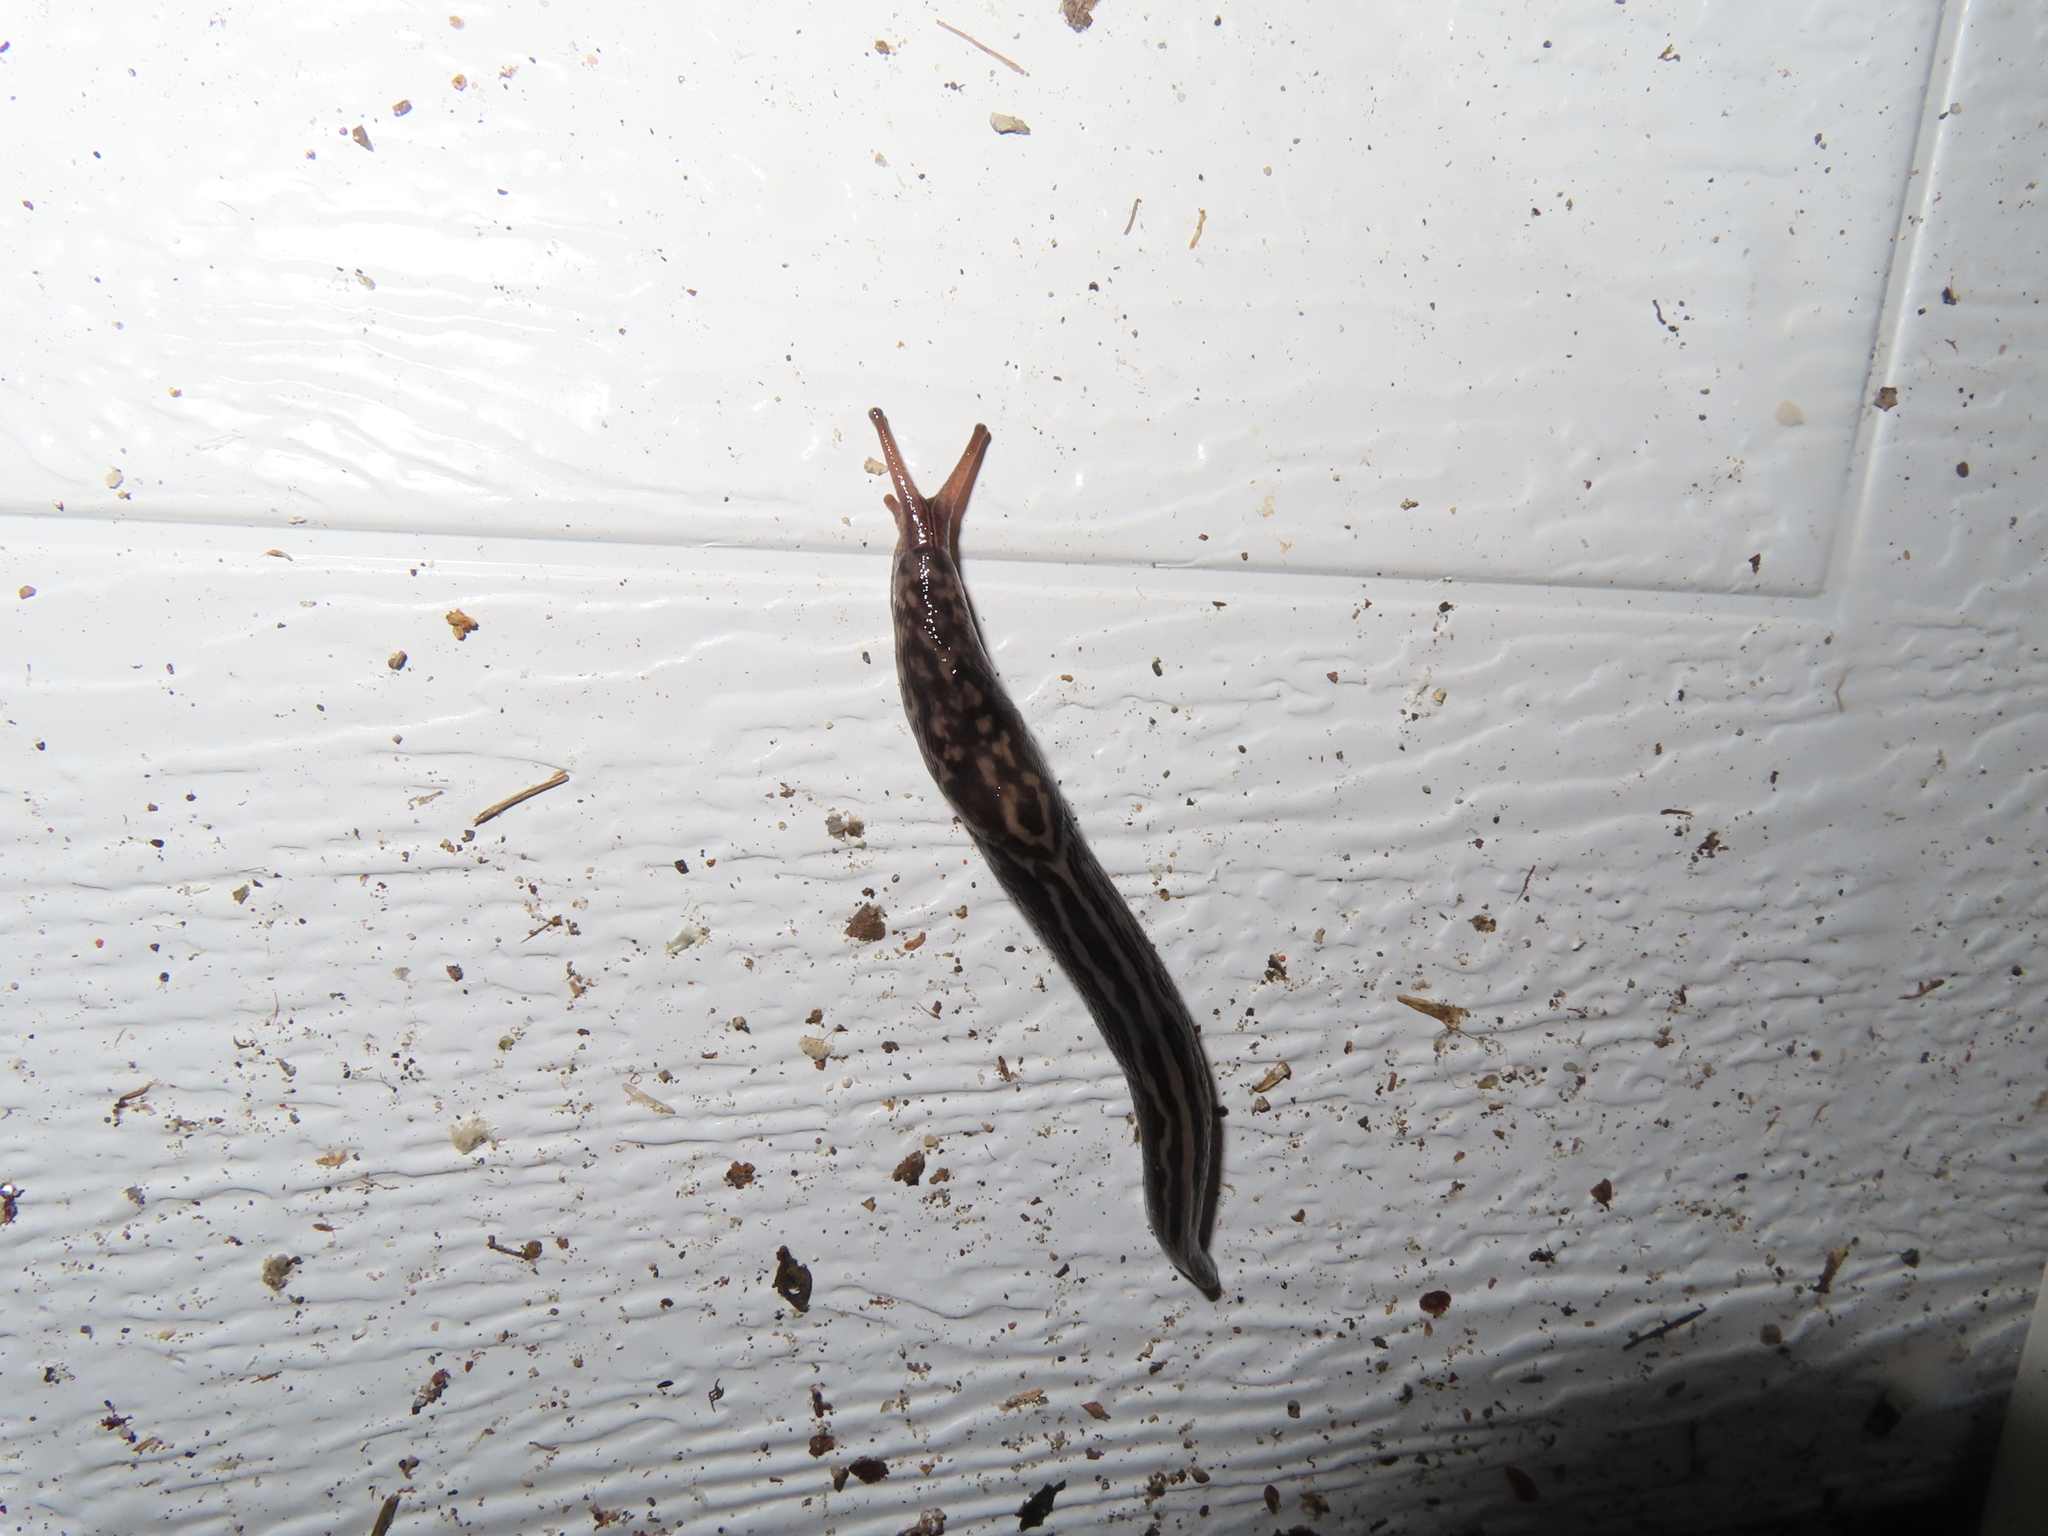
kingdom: Animalia
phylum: Mollusca
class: Gastropoda
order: Stylommatophora
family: Limacidae
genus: Limax
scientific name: Limax maximus
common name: Great grey slug
